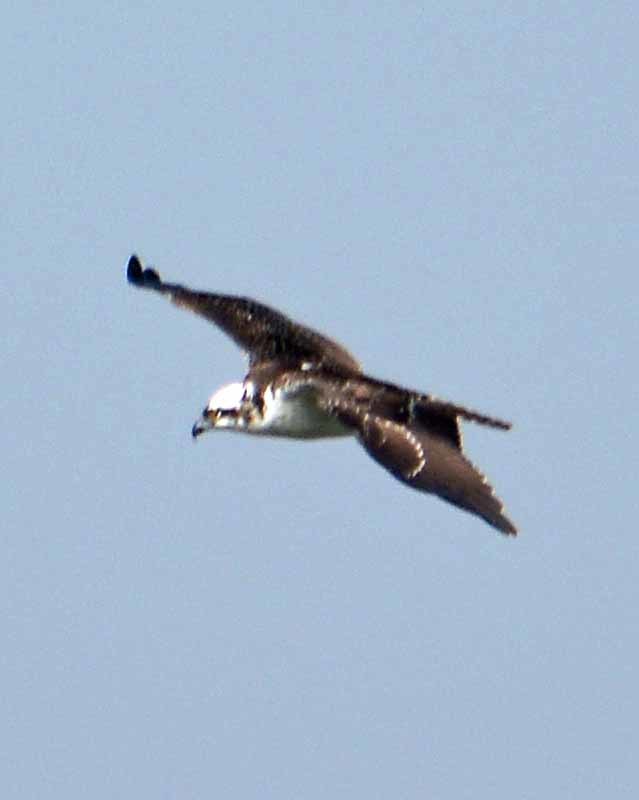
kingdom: Animalia
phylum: Chordata
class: Aves
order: Accipitriformes
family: Pandionidae
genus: Pandion
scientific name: Pandion haliaetus
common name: Osprey
